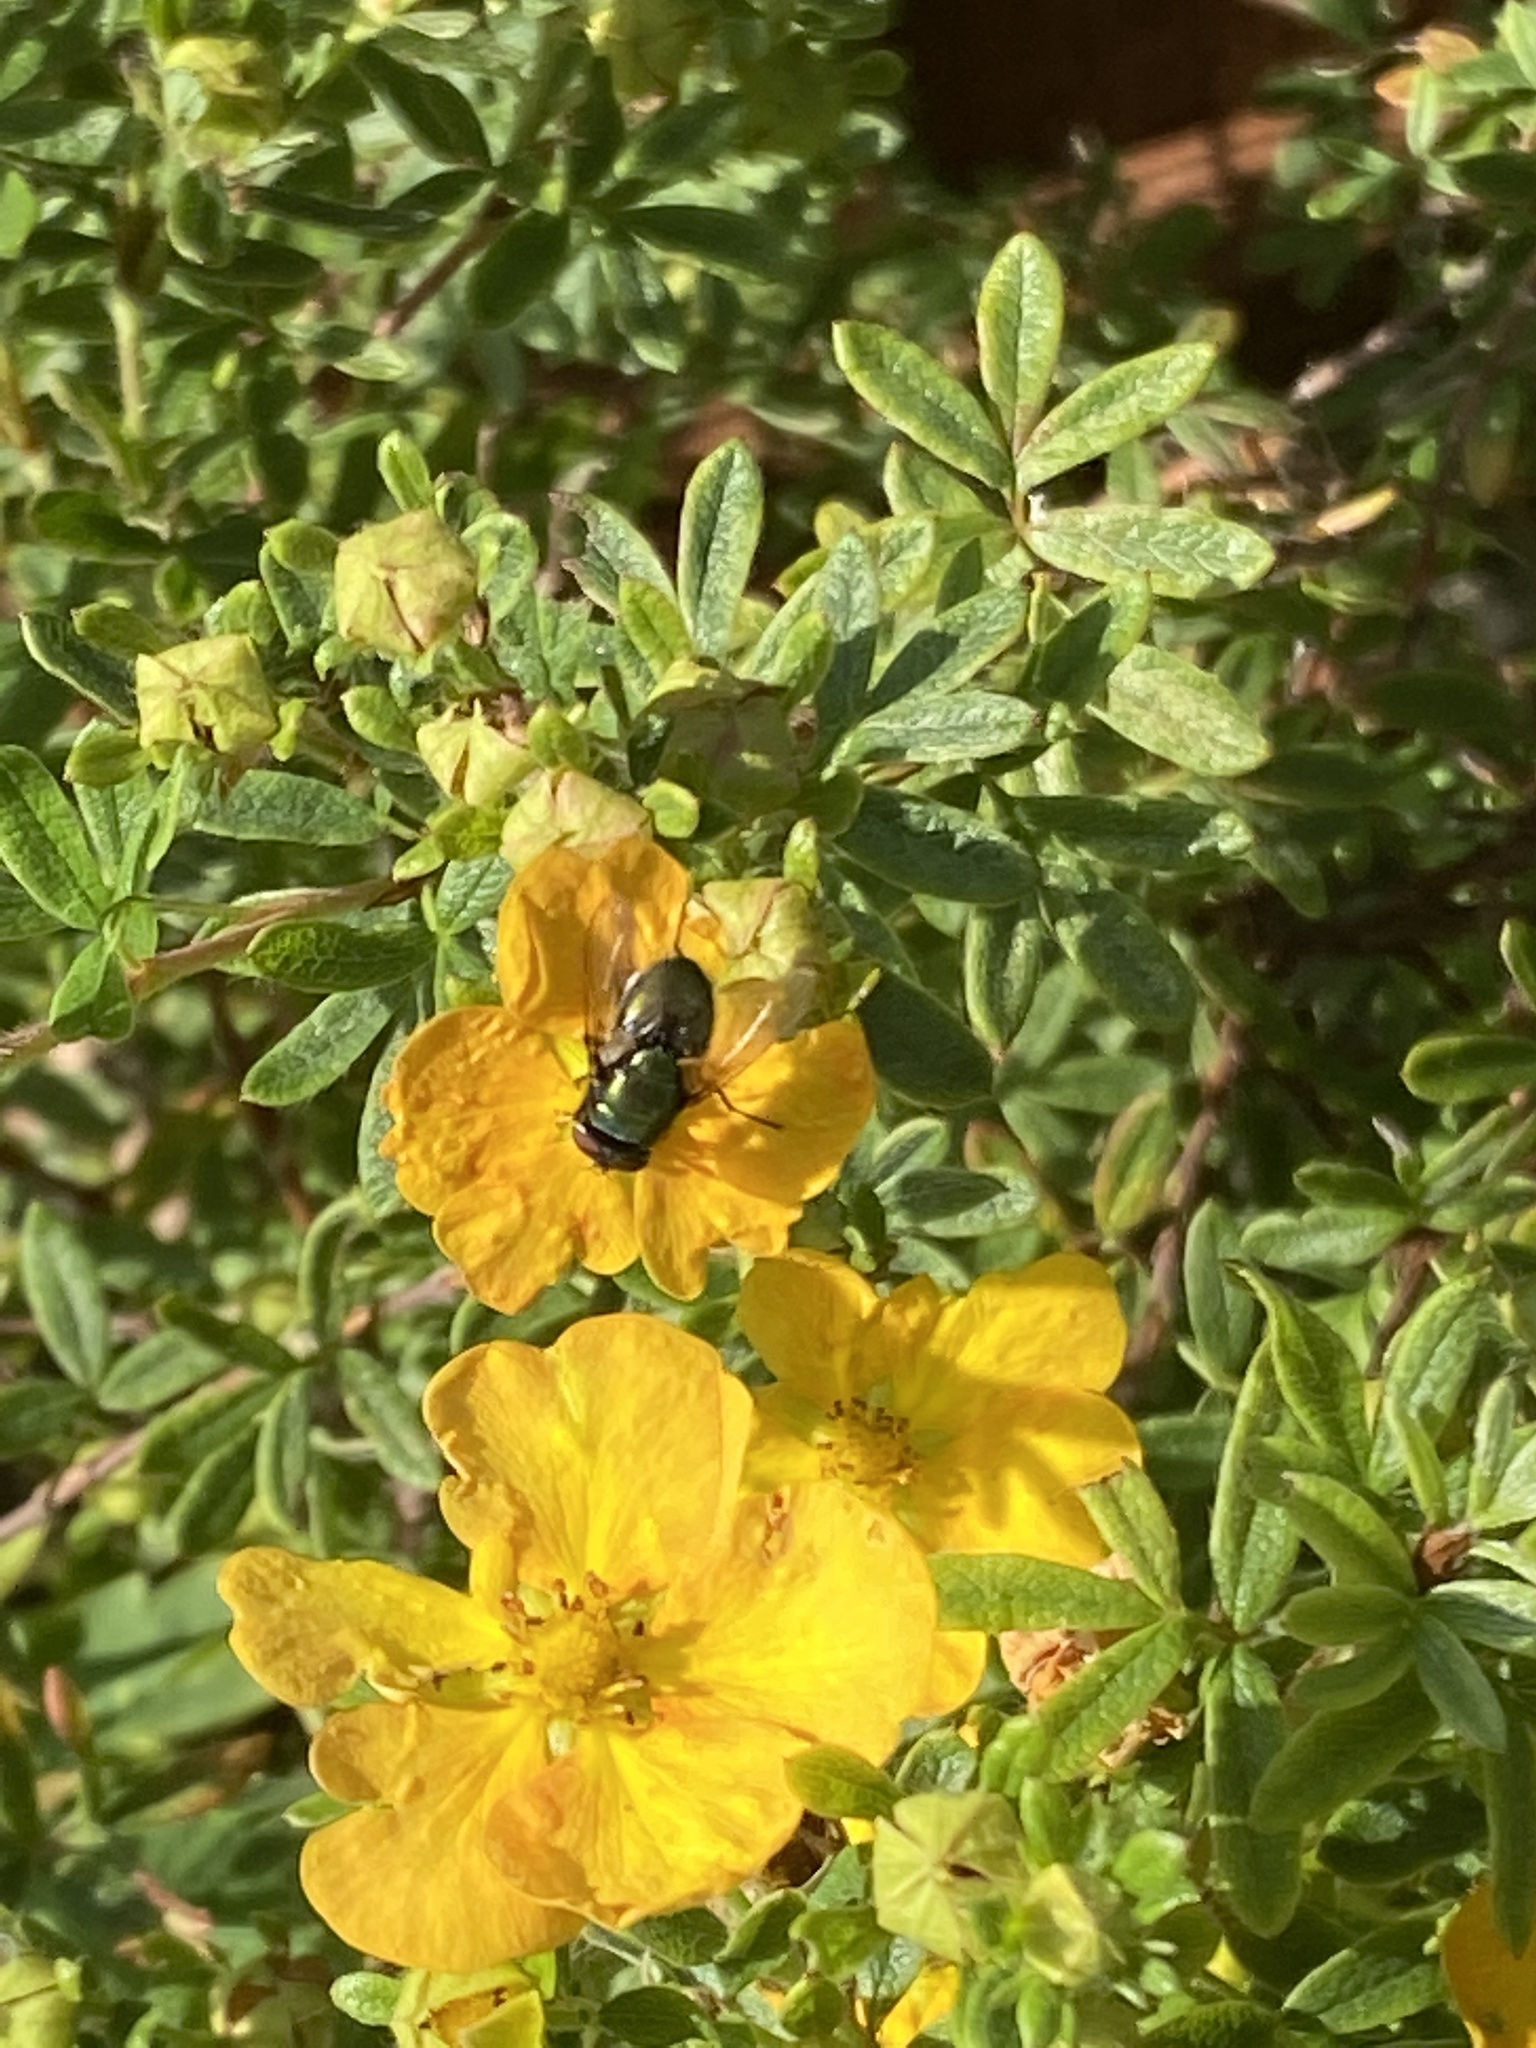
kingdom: Animalia
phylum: Arthropoda
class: Insecta
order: Diptera
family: Calliphoridae
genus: Lucilia
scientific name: Lucilia
